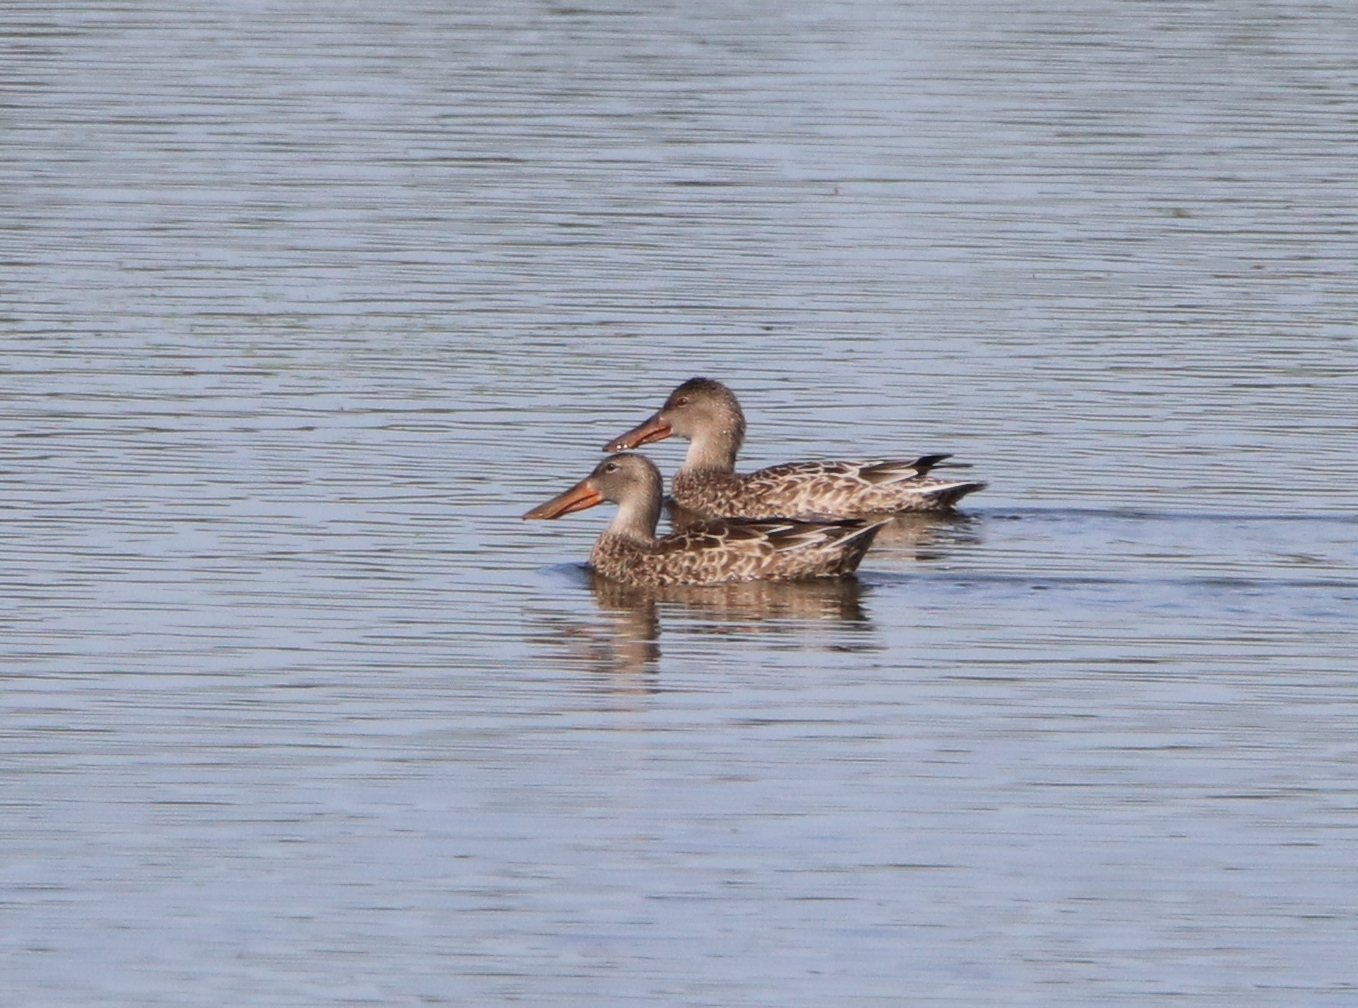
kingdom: Animalia
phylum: Chordata
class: Aves
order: Anseriformes
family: Anatidae
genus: Spatula
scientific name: Spatula clypeata
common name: Northern shoveler
